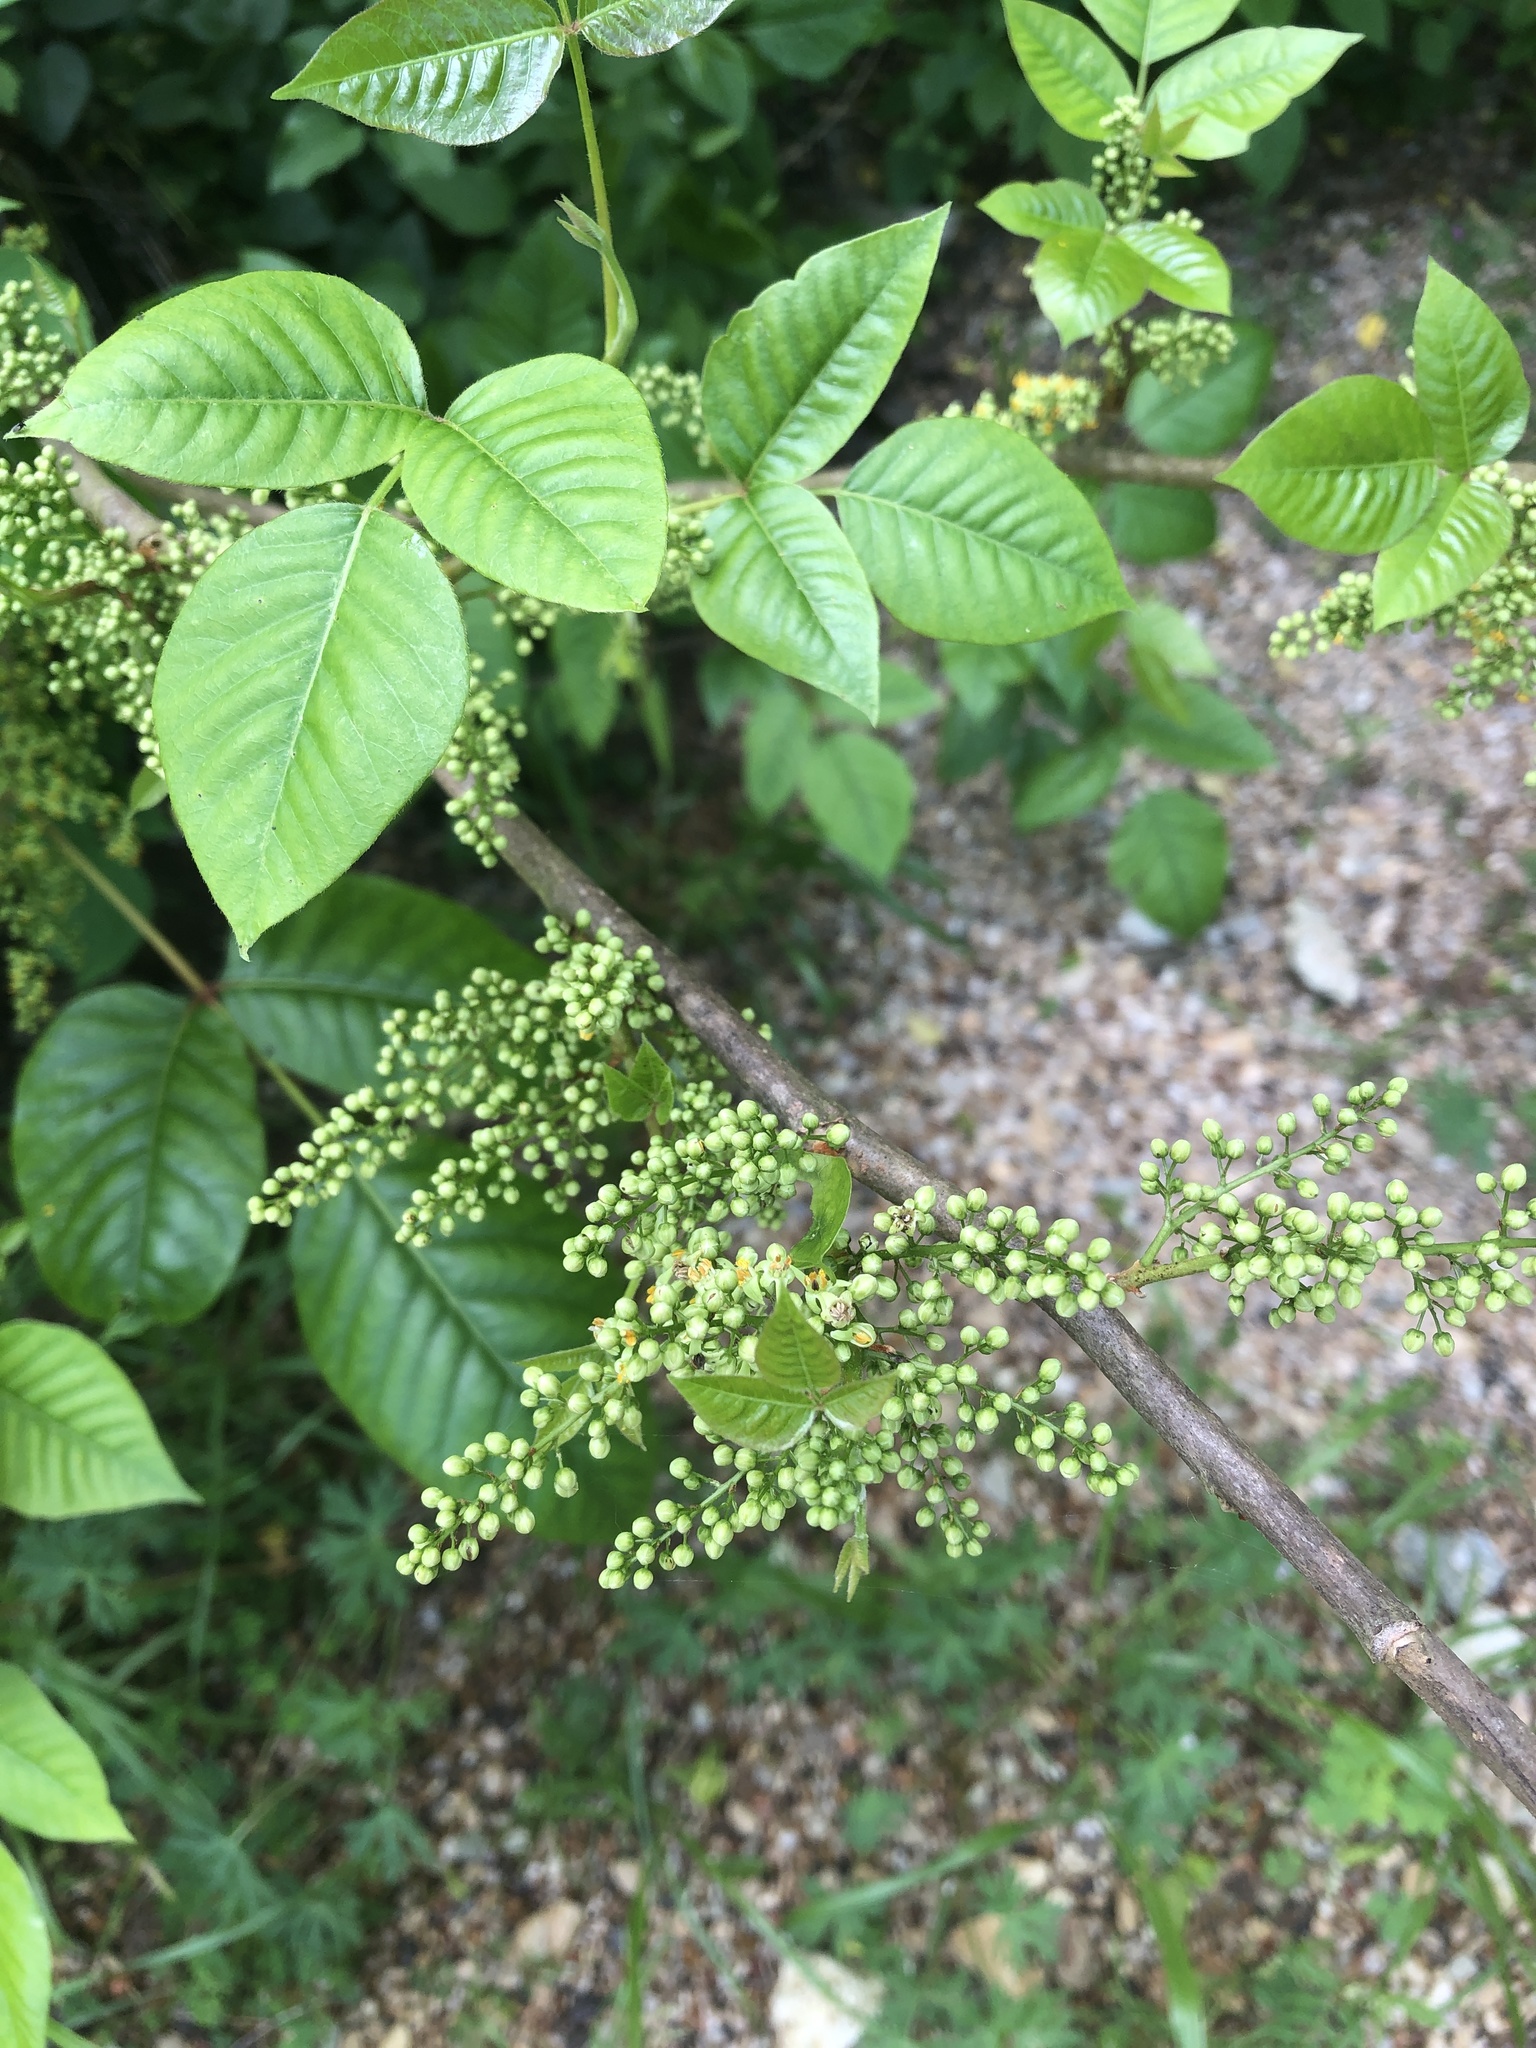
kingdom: Plantae
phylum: Tracheophyta
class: Magnoliopsida
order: Sapindales
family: Anacardiaceae
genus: Toxicodendron
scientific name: Toxicodendron radicans
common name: Poison ivy
